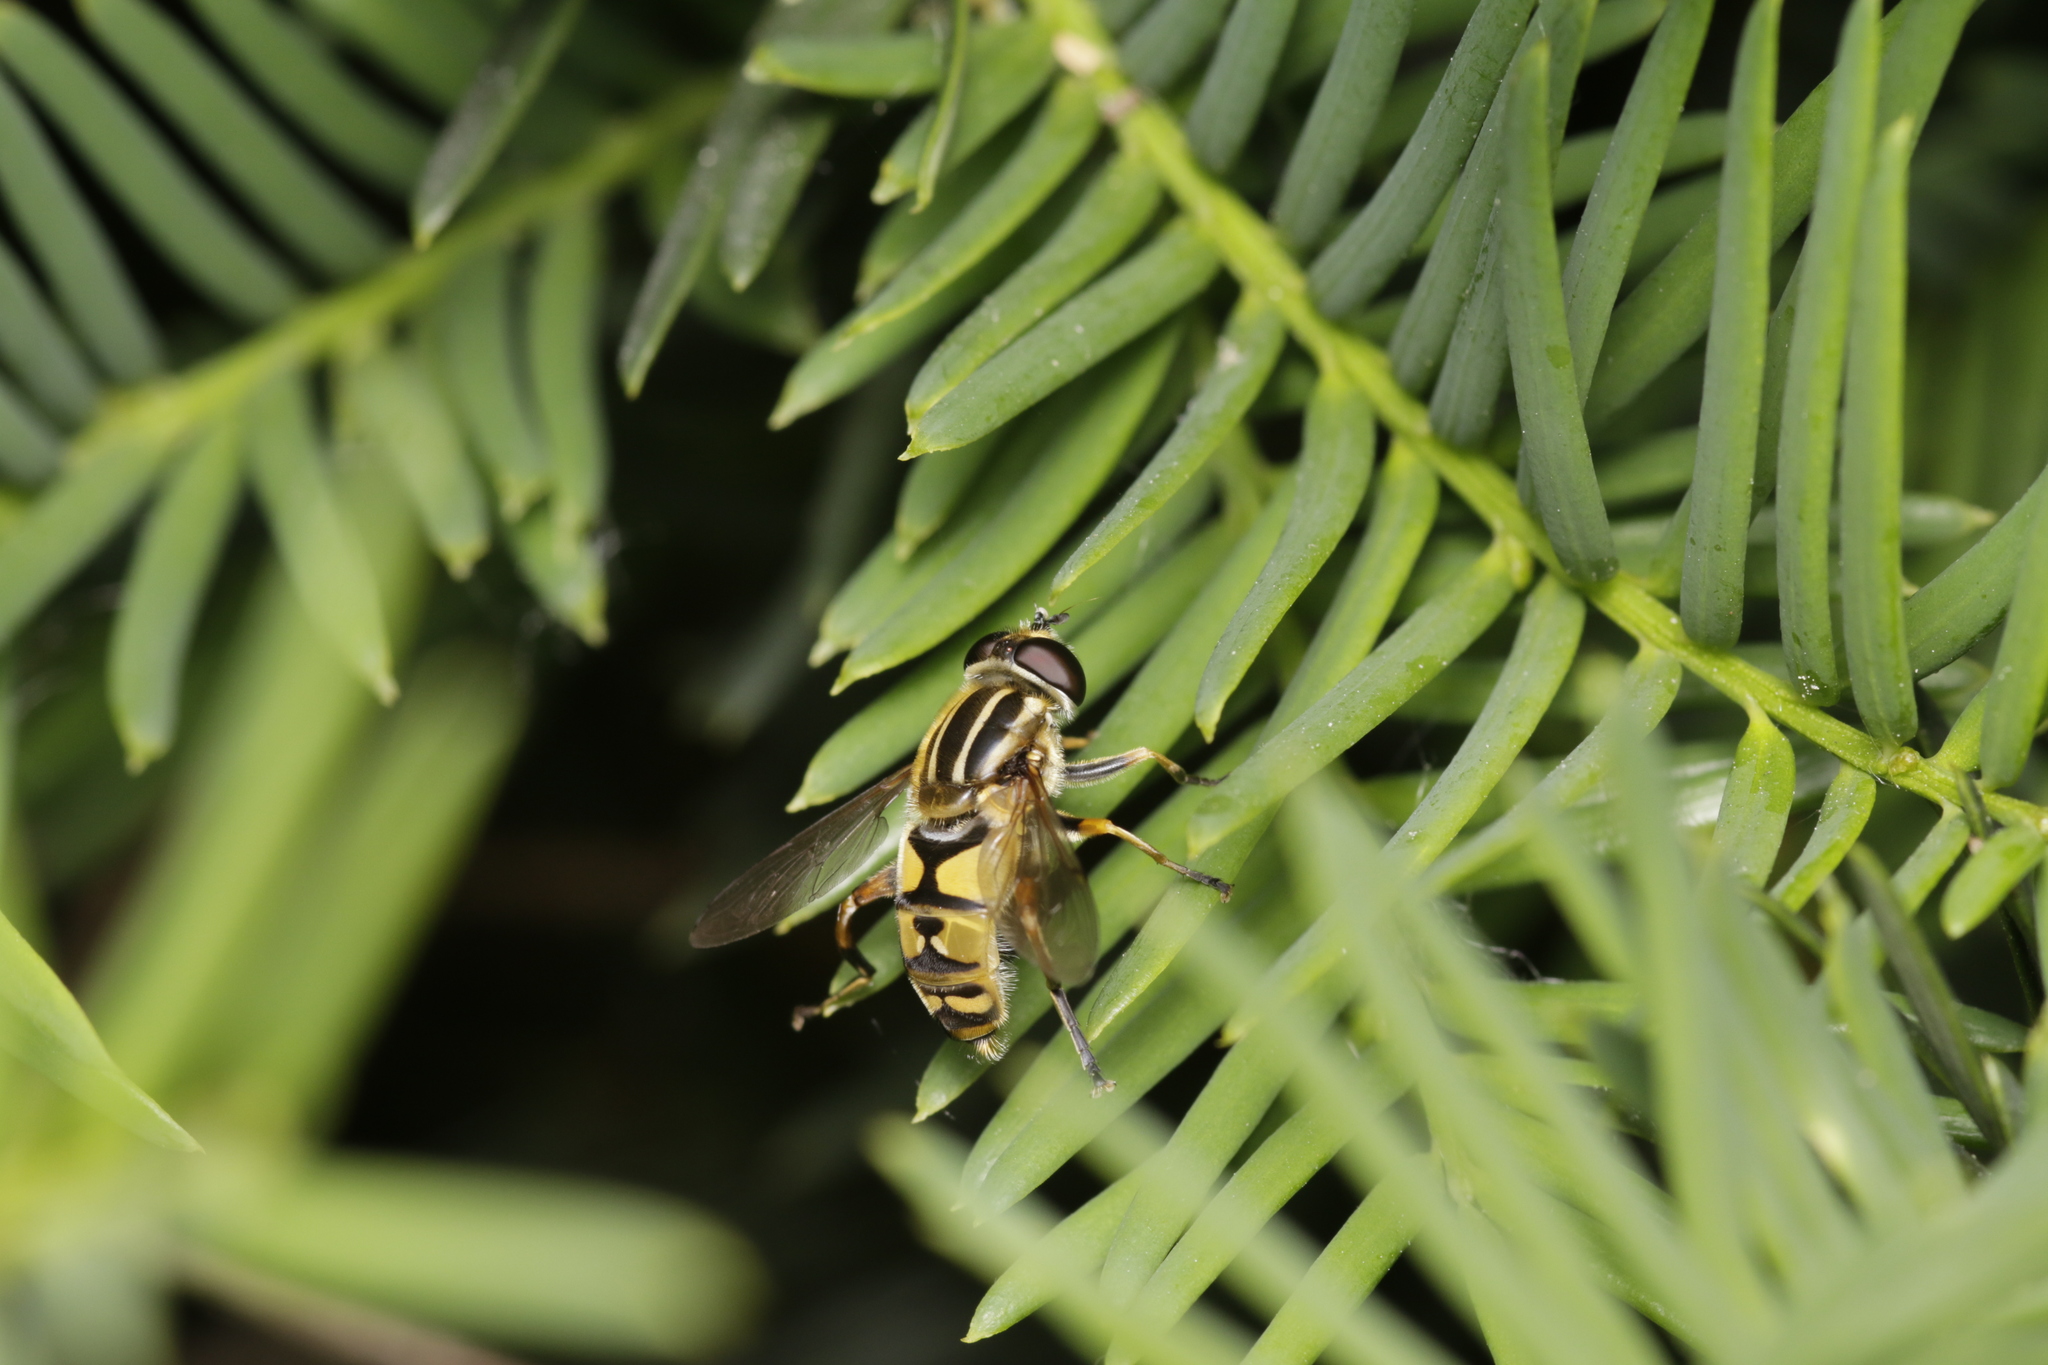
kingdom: Animalia
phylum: Arthropoda
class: Insecta
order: Diptera
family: Syrphidae
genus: Helophilus
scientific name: Helophilus pendulus
